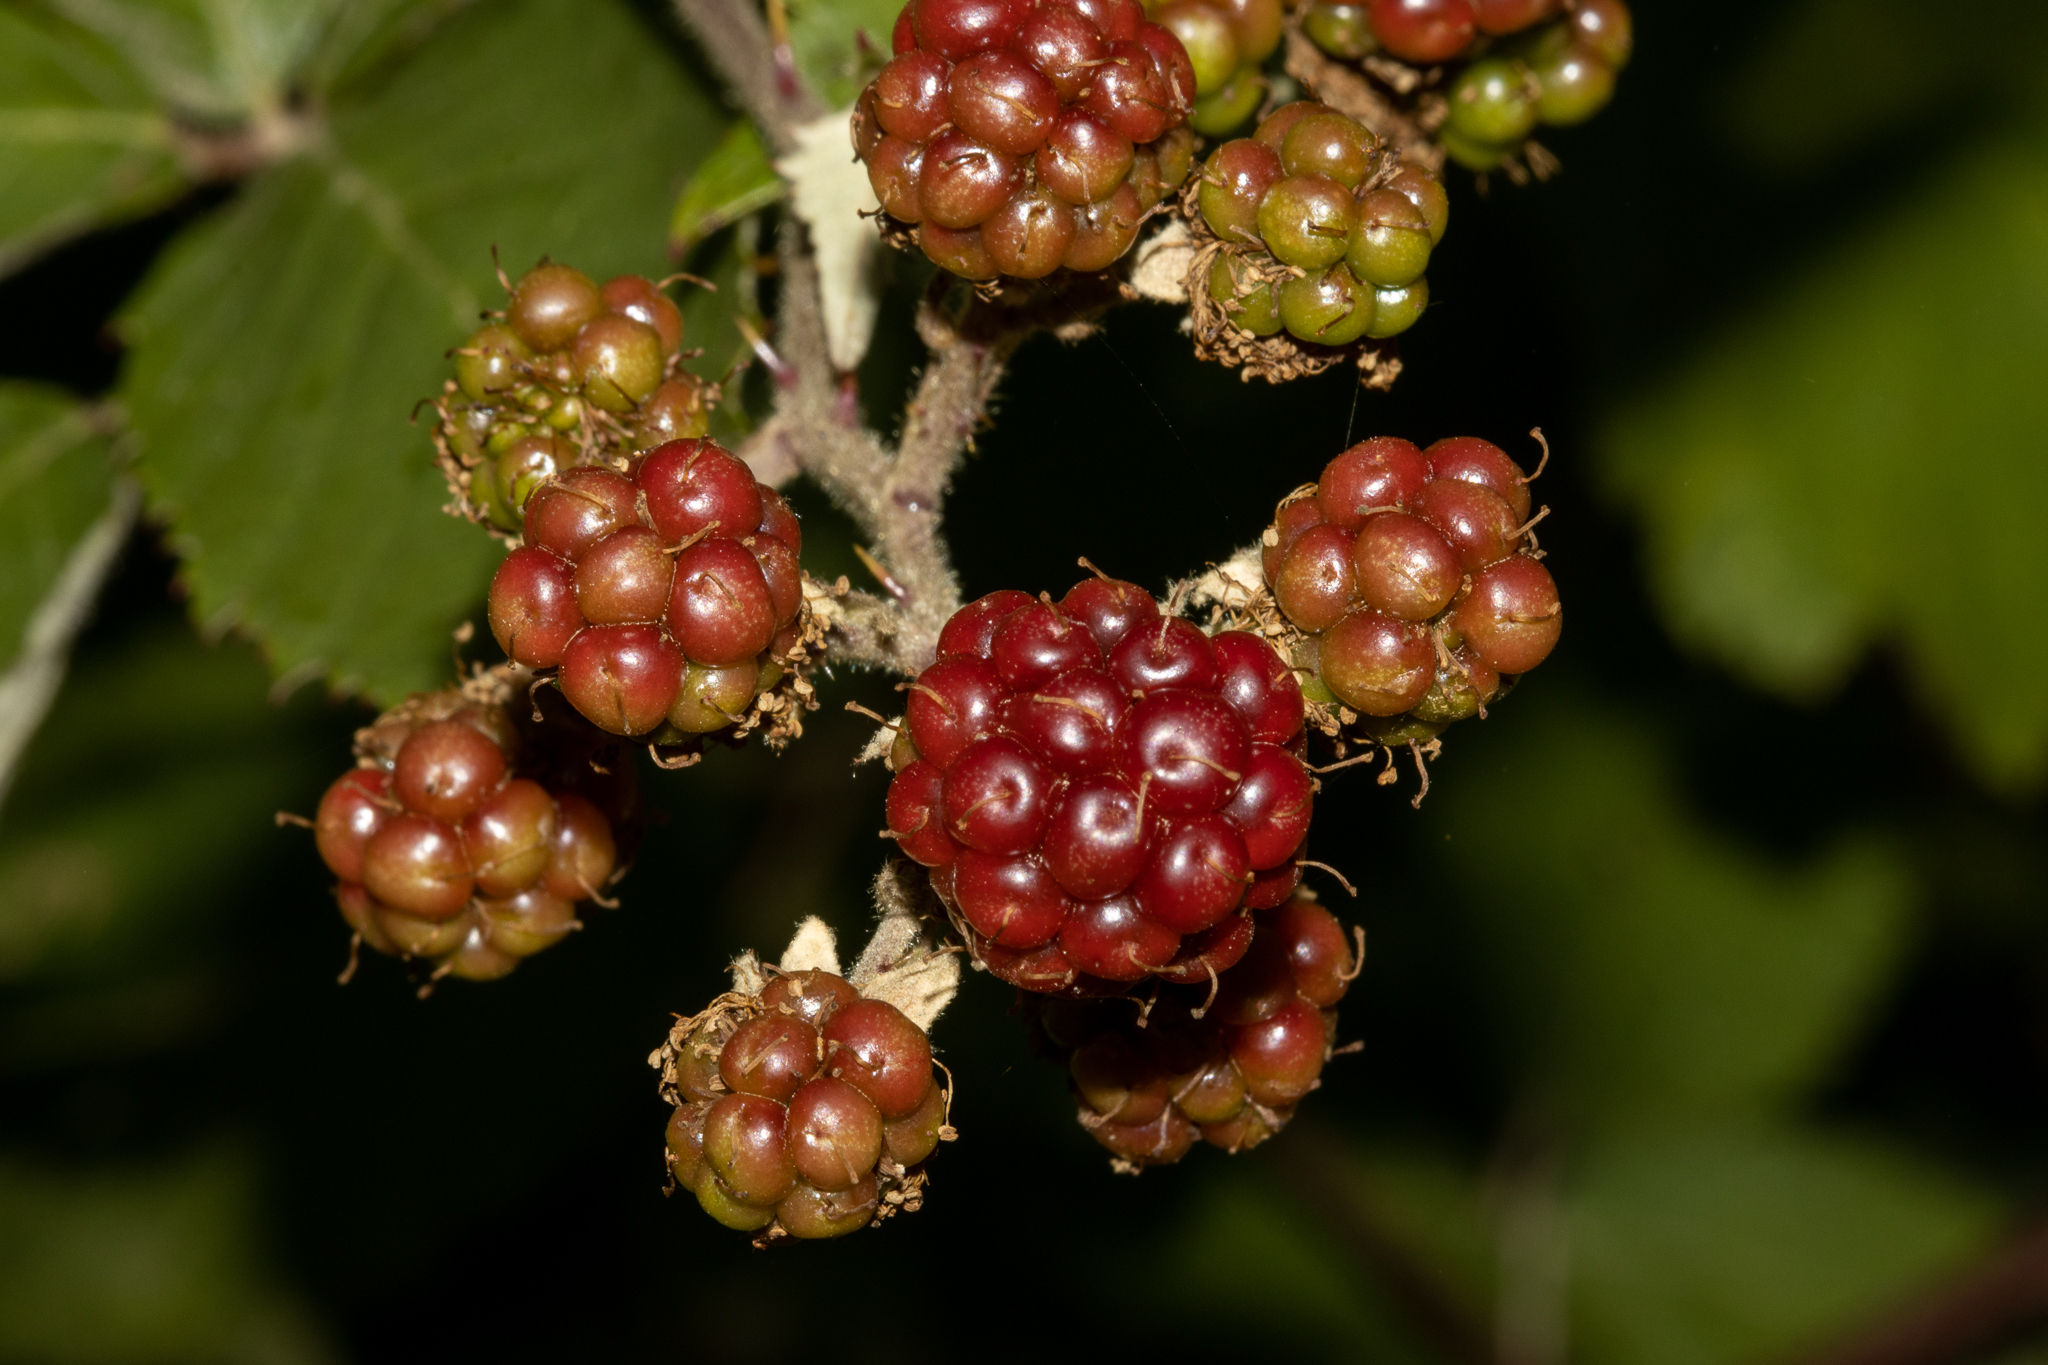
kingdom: Plantae
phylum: Tracheophyta
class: Magnoliopsida
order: Rosales
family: Rosaceae
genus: Rubus
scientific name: Rubus
